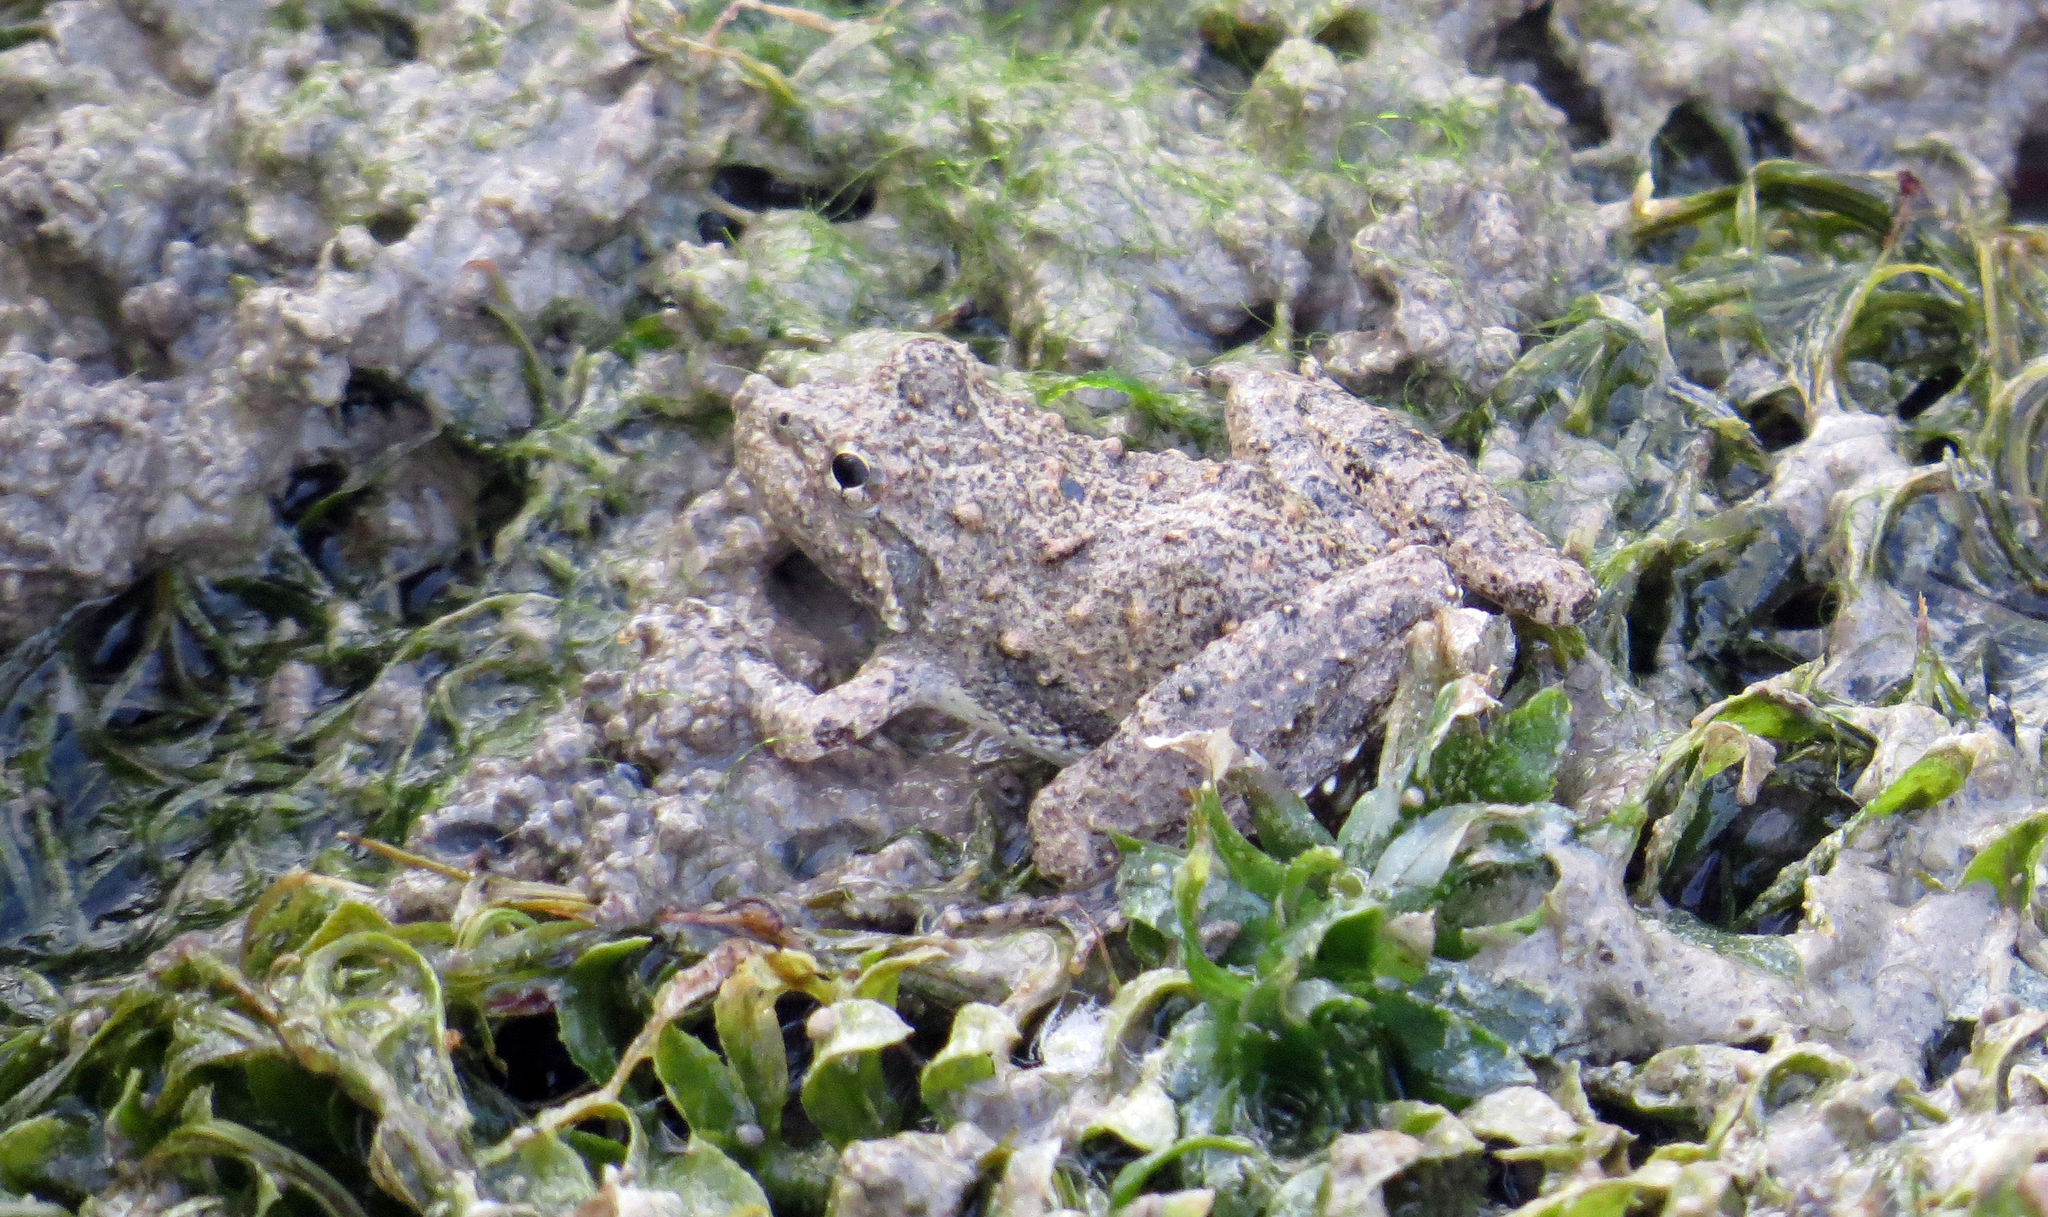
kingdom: Animalia
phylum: Chordata
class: Amphibia
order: Anura
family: Hylidae
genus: Acris
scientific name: Acris blanchardi
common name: Blanchard's cricket frog
